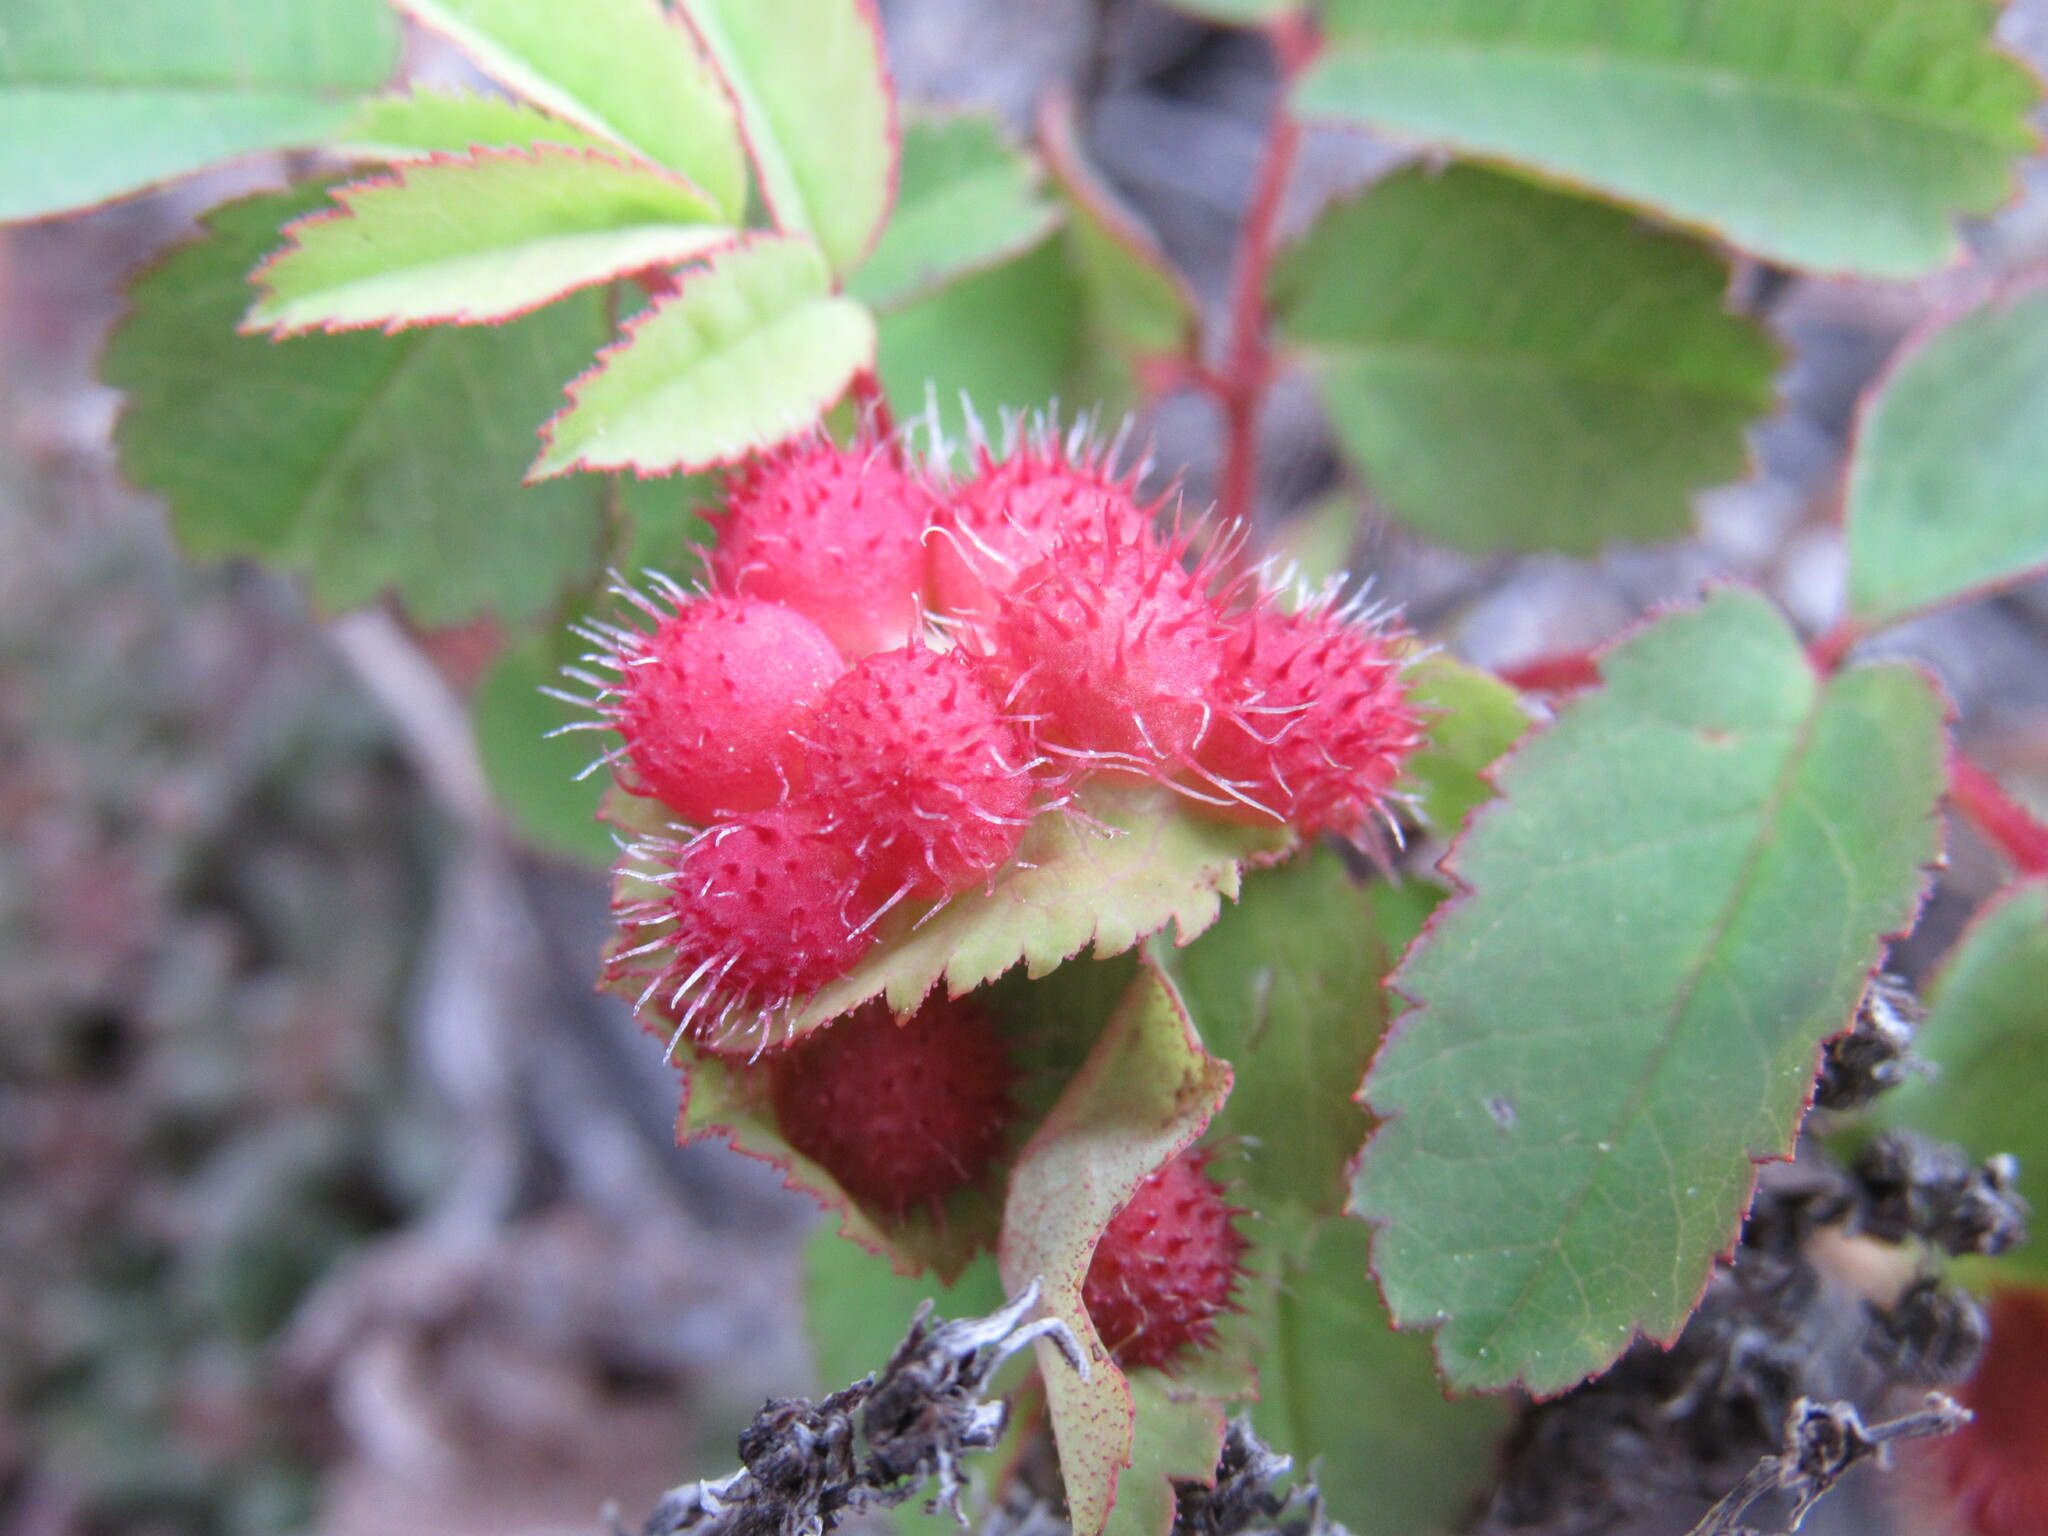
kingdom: Animalia
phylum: Arthropoda
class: Insecta
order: Hymenoptera
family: Cynipidae
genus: Diplolepis
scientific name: Diplolepis polita
